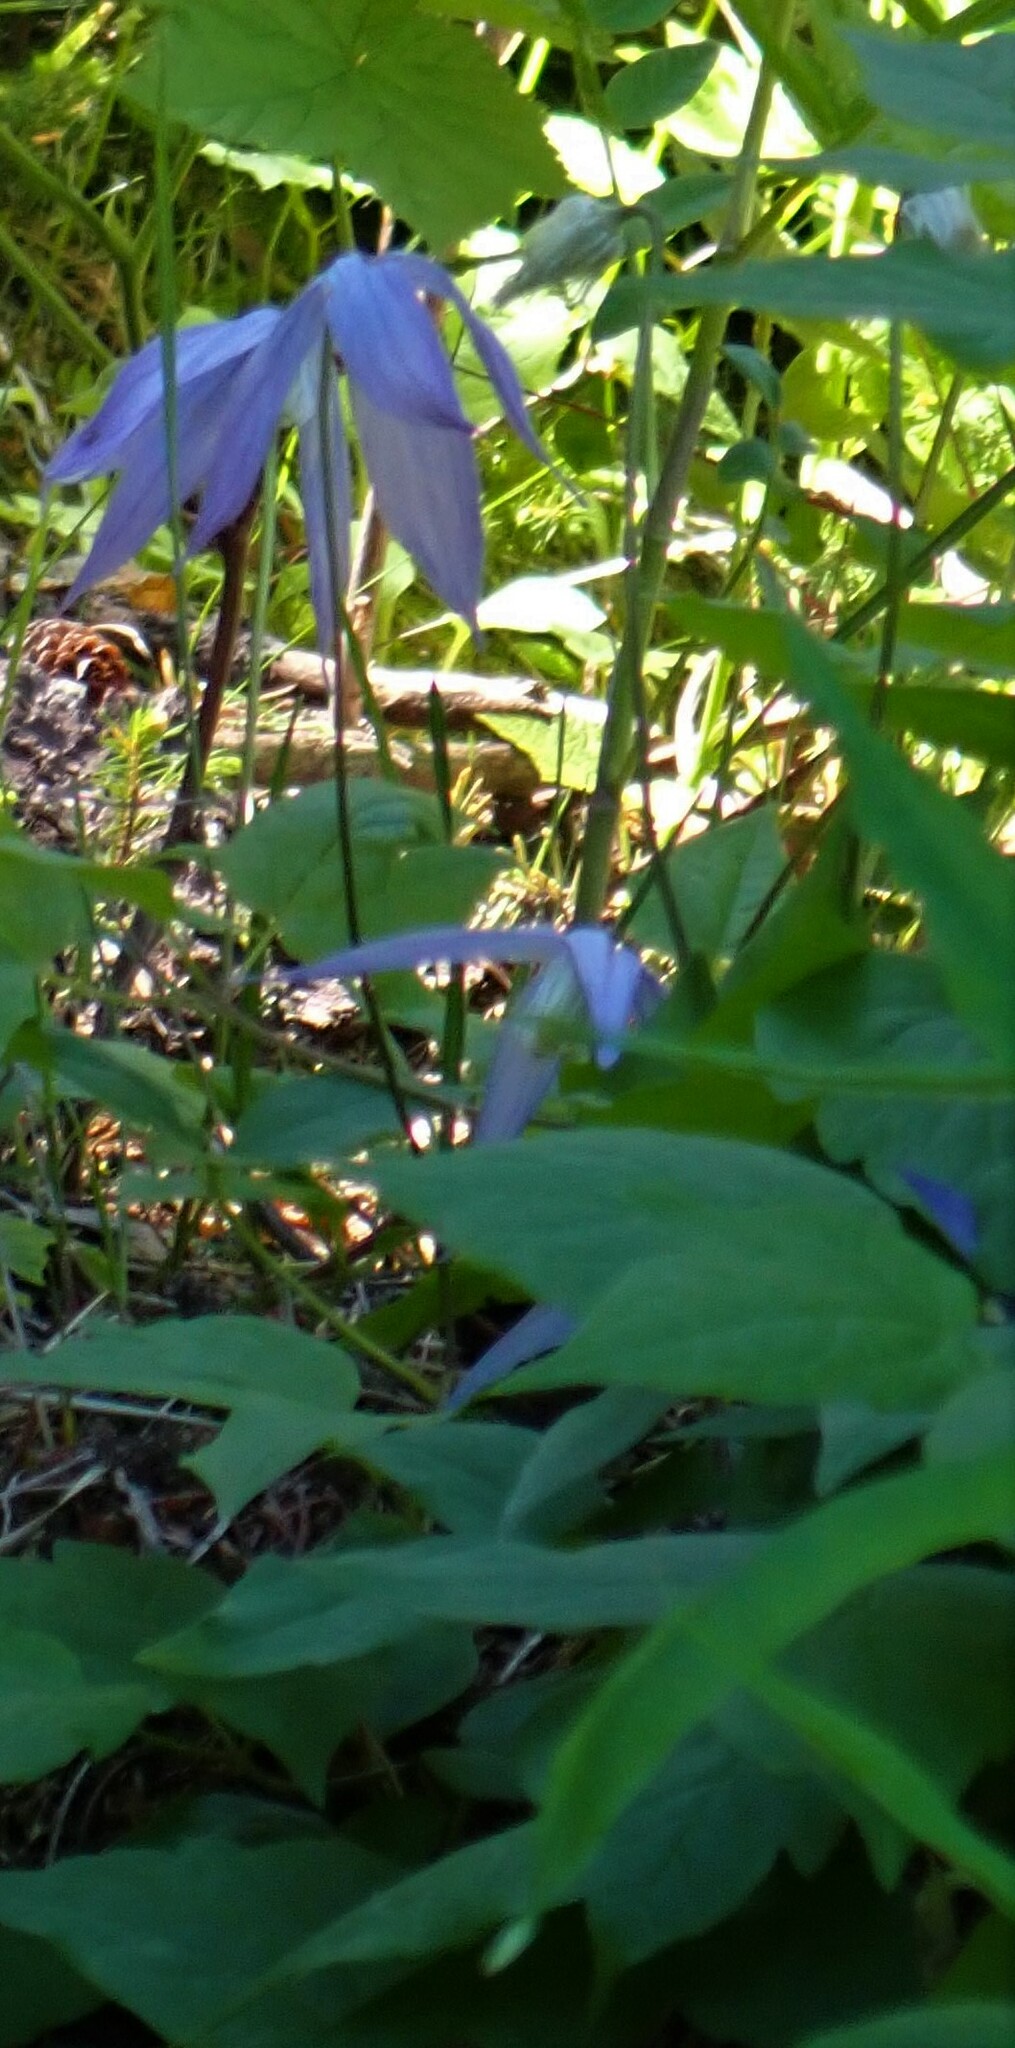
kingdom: Plantae
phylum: Tracheophyta
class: Magnoliopsida
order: Ranunculales
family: Ranunculaceae
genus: Clematis
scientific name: Clematis occidentalis
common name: Purple clematis
